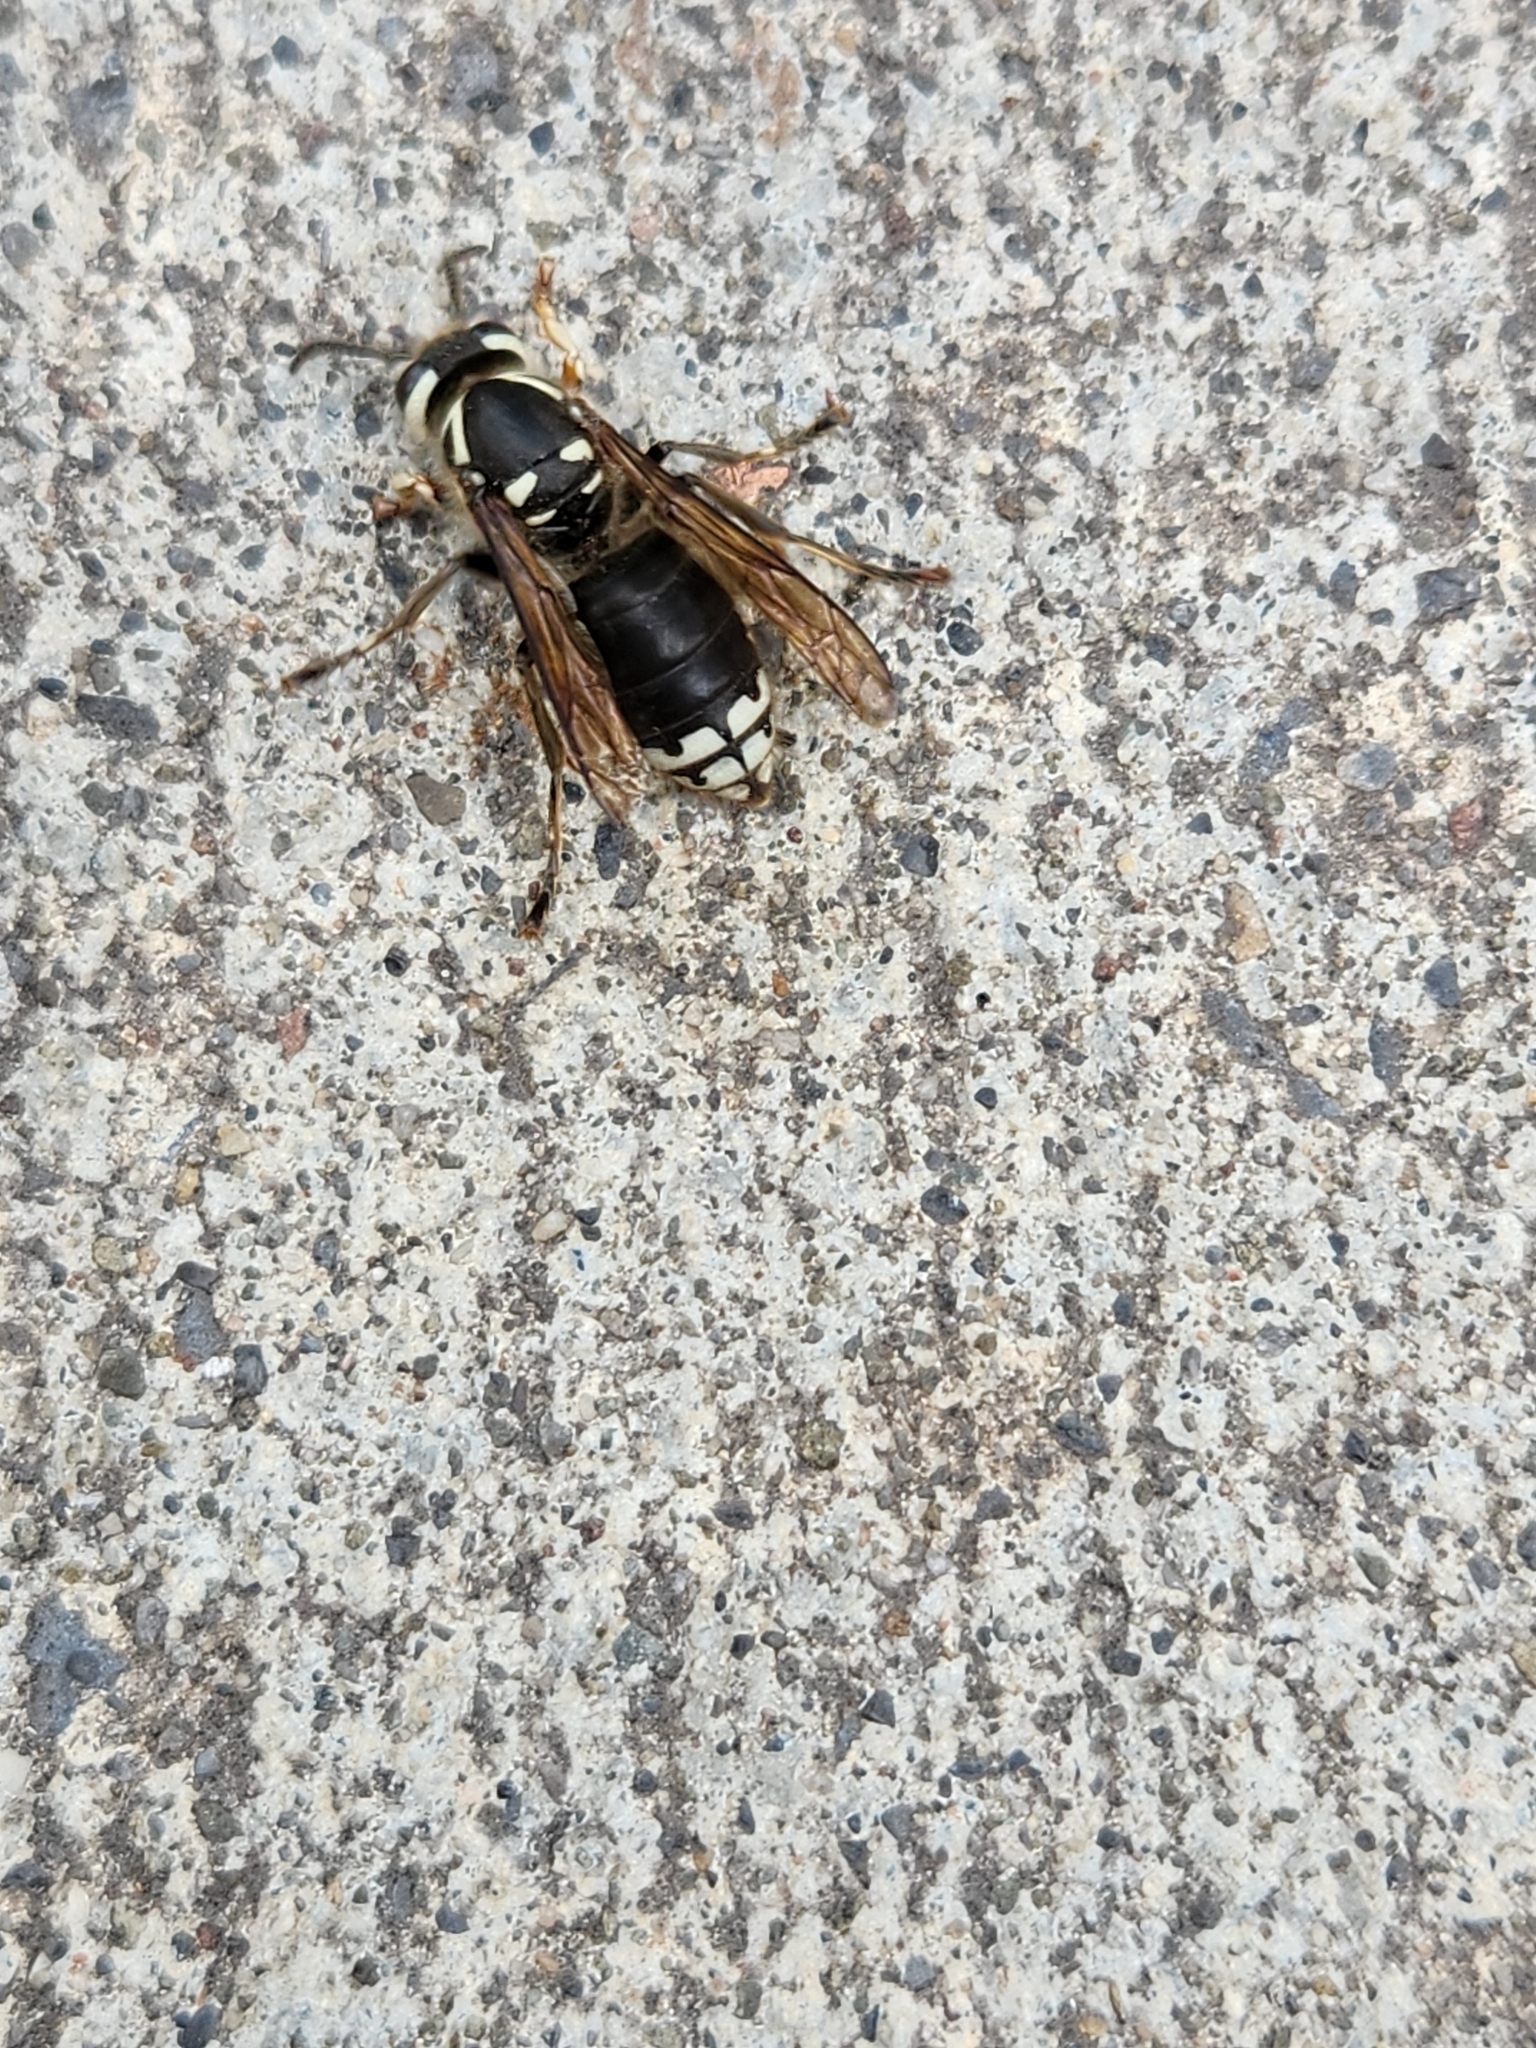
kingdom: Animalia
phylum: Arthropoda
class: Insecta
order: Hymenoptera
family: Vespidae
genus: Dolichovespula
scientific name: Dolichovespula maculata
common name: Bald-faced hornet
